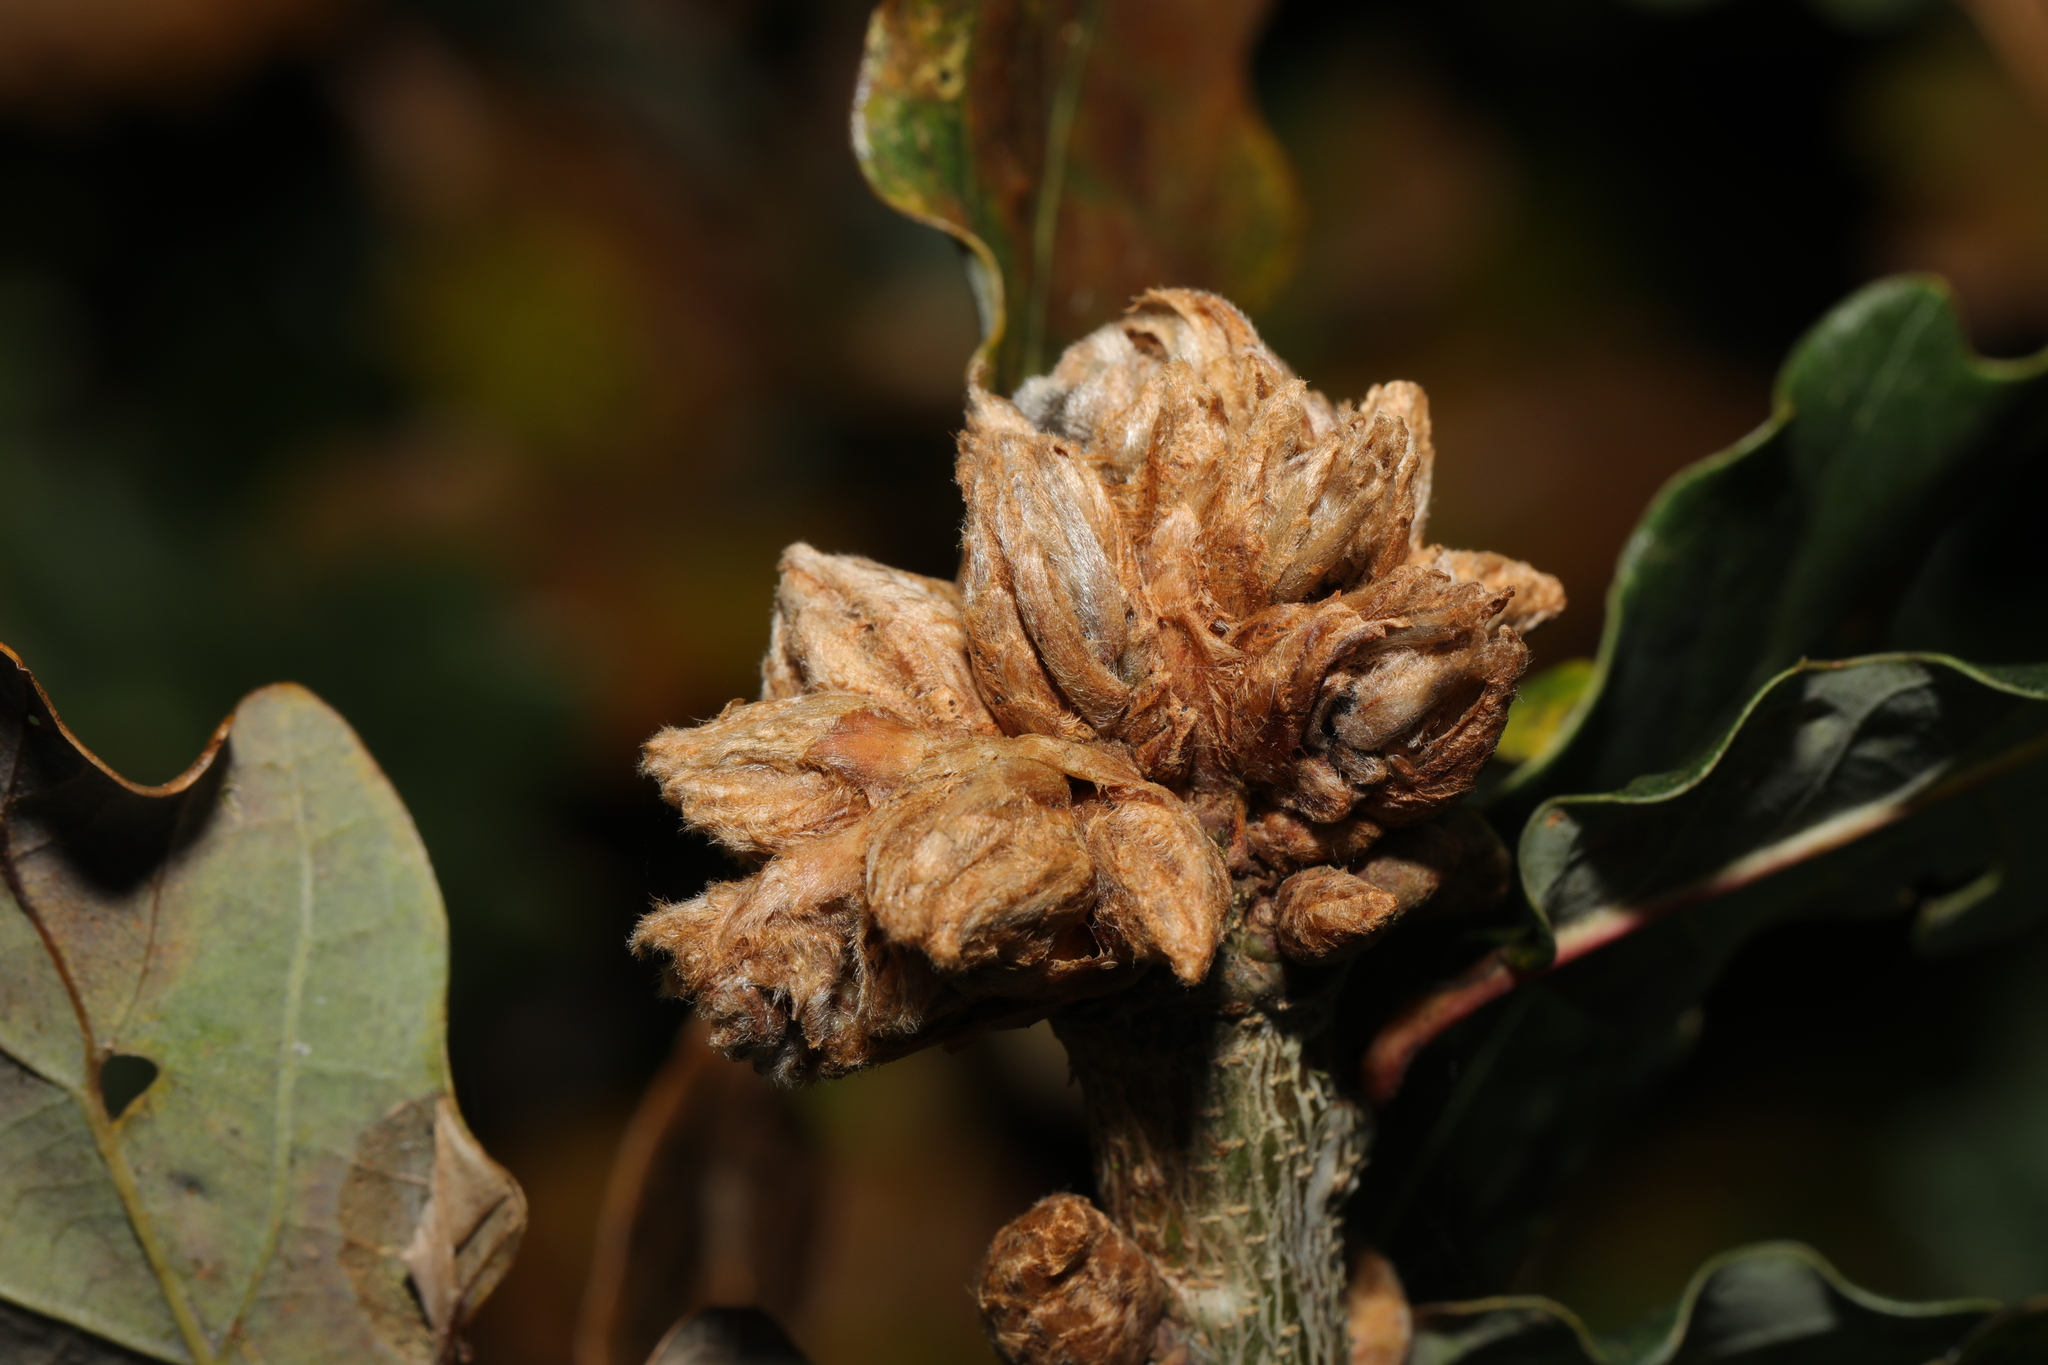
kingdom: Animalia
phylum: Arthropoda
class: Insecta
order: Hymenoptera
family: Cynipidae
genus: Andricus
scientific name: Andricus foecundatrix
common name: Artichoke gall
